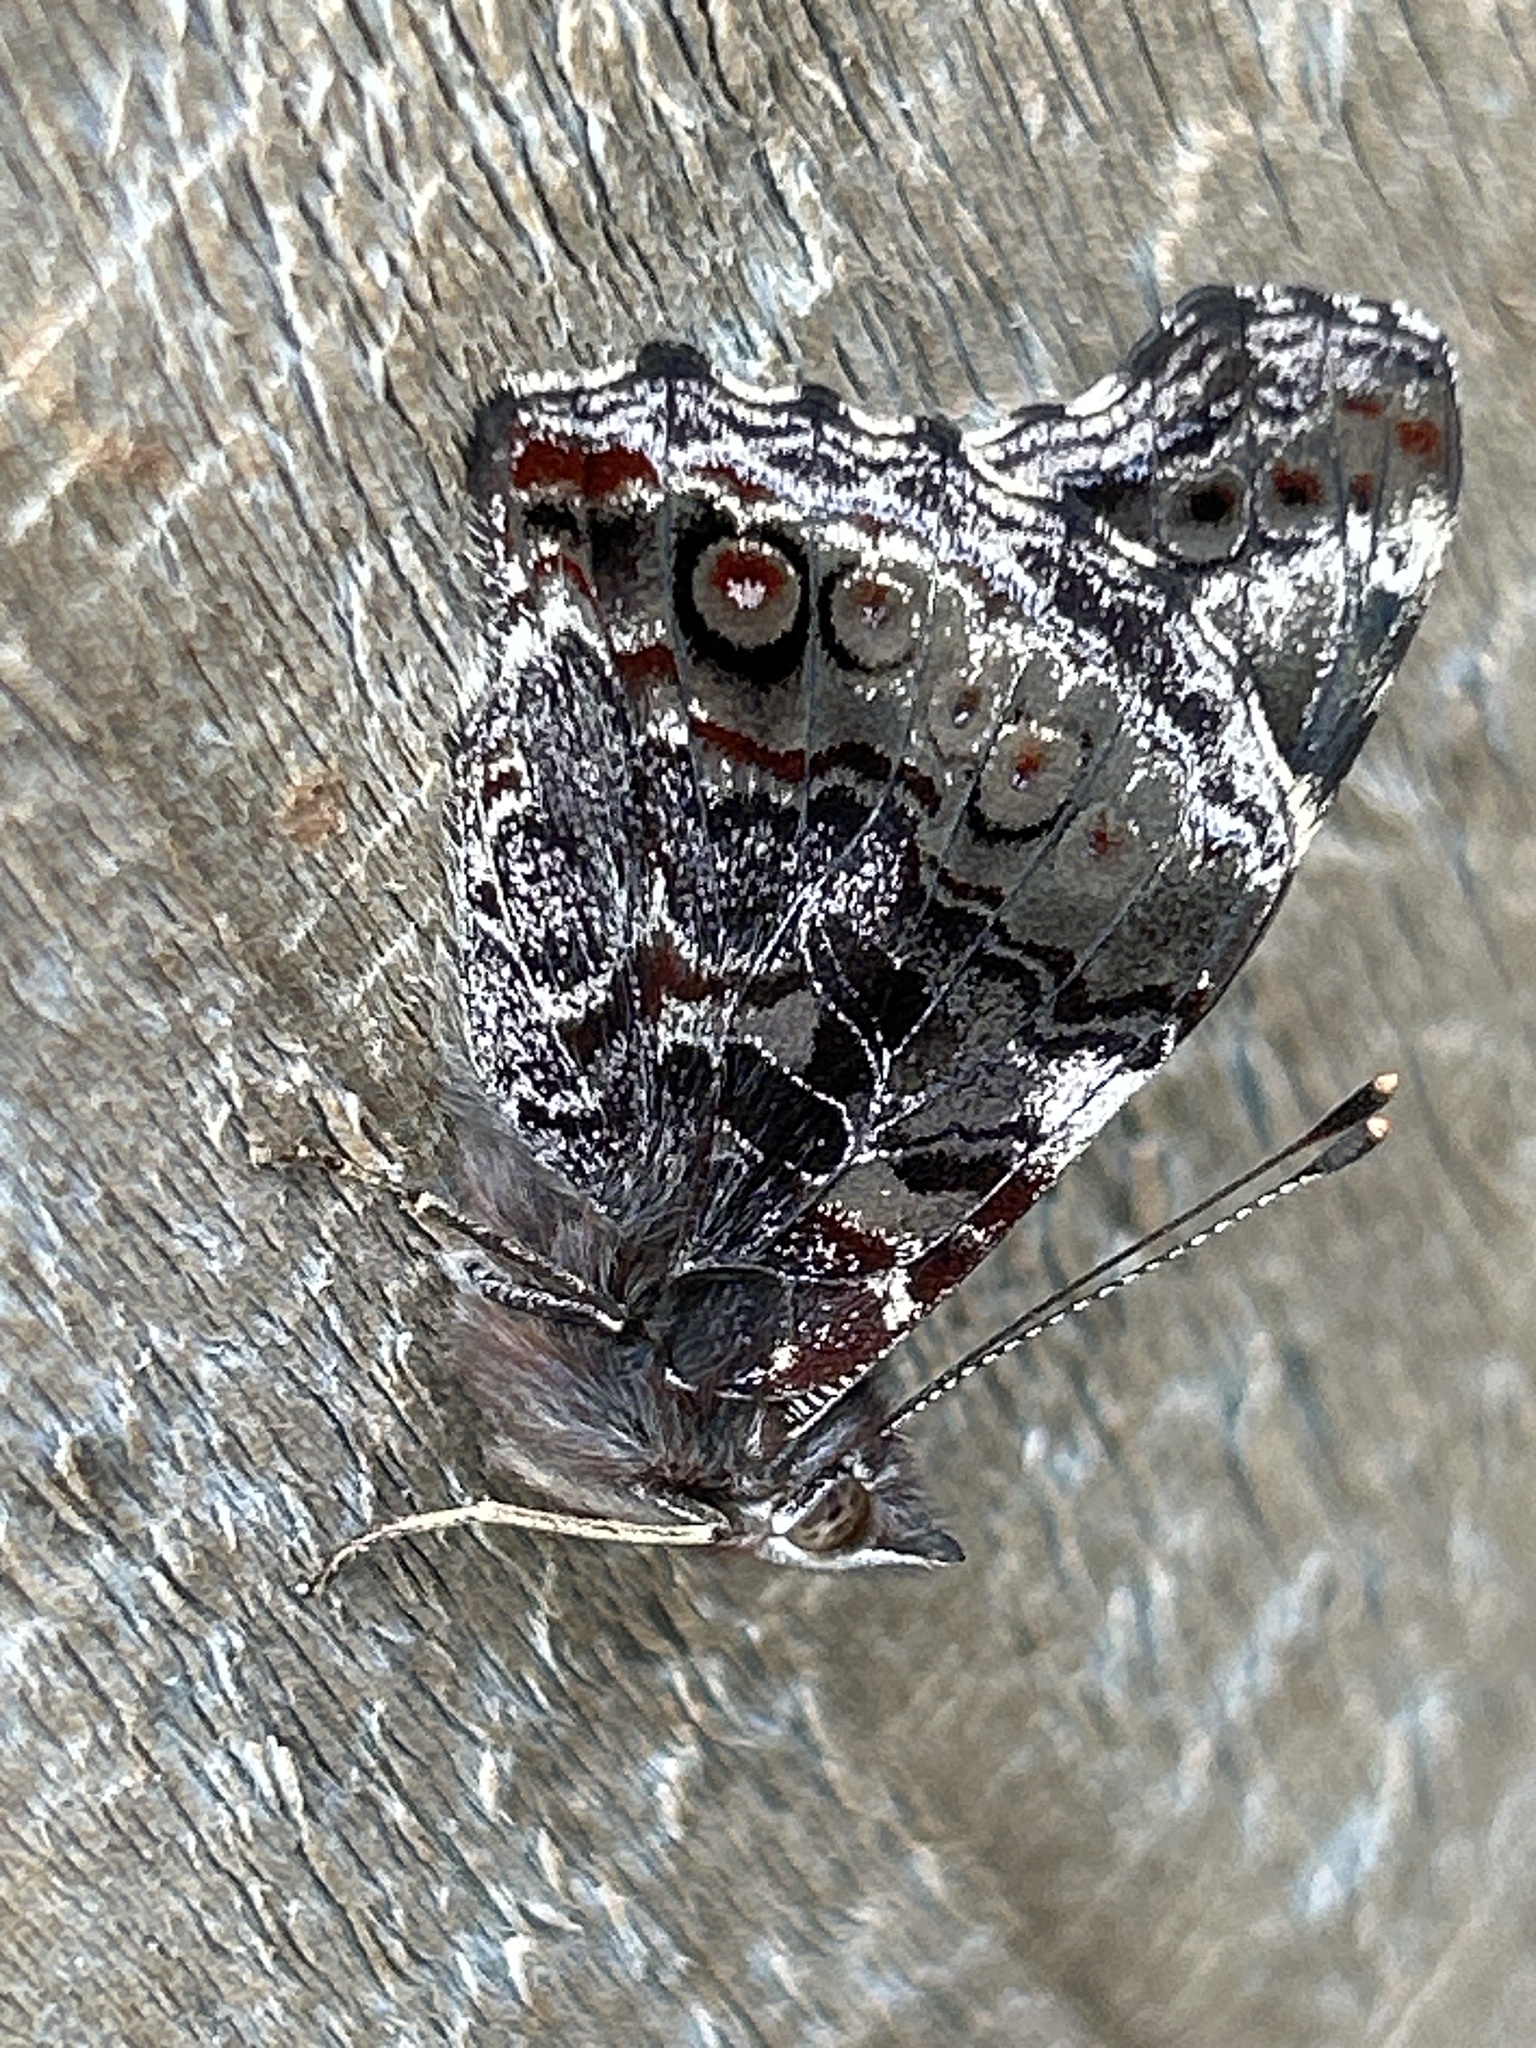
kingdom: Animalia
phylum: Arthropoda
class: Insecta
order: Lepidoptera
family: Nymphalidae
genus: Vanessa
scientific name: Vanessa itea
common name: Yellow admiral
